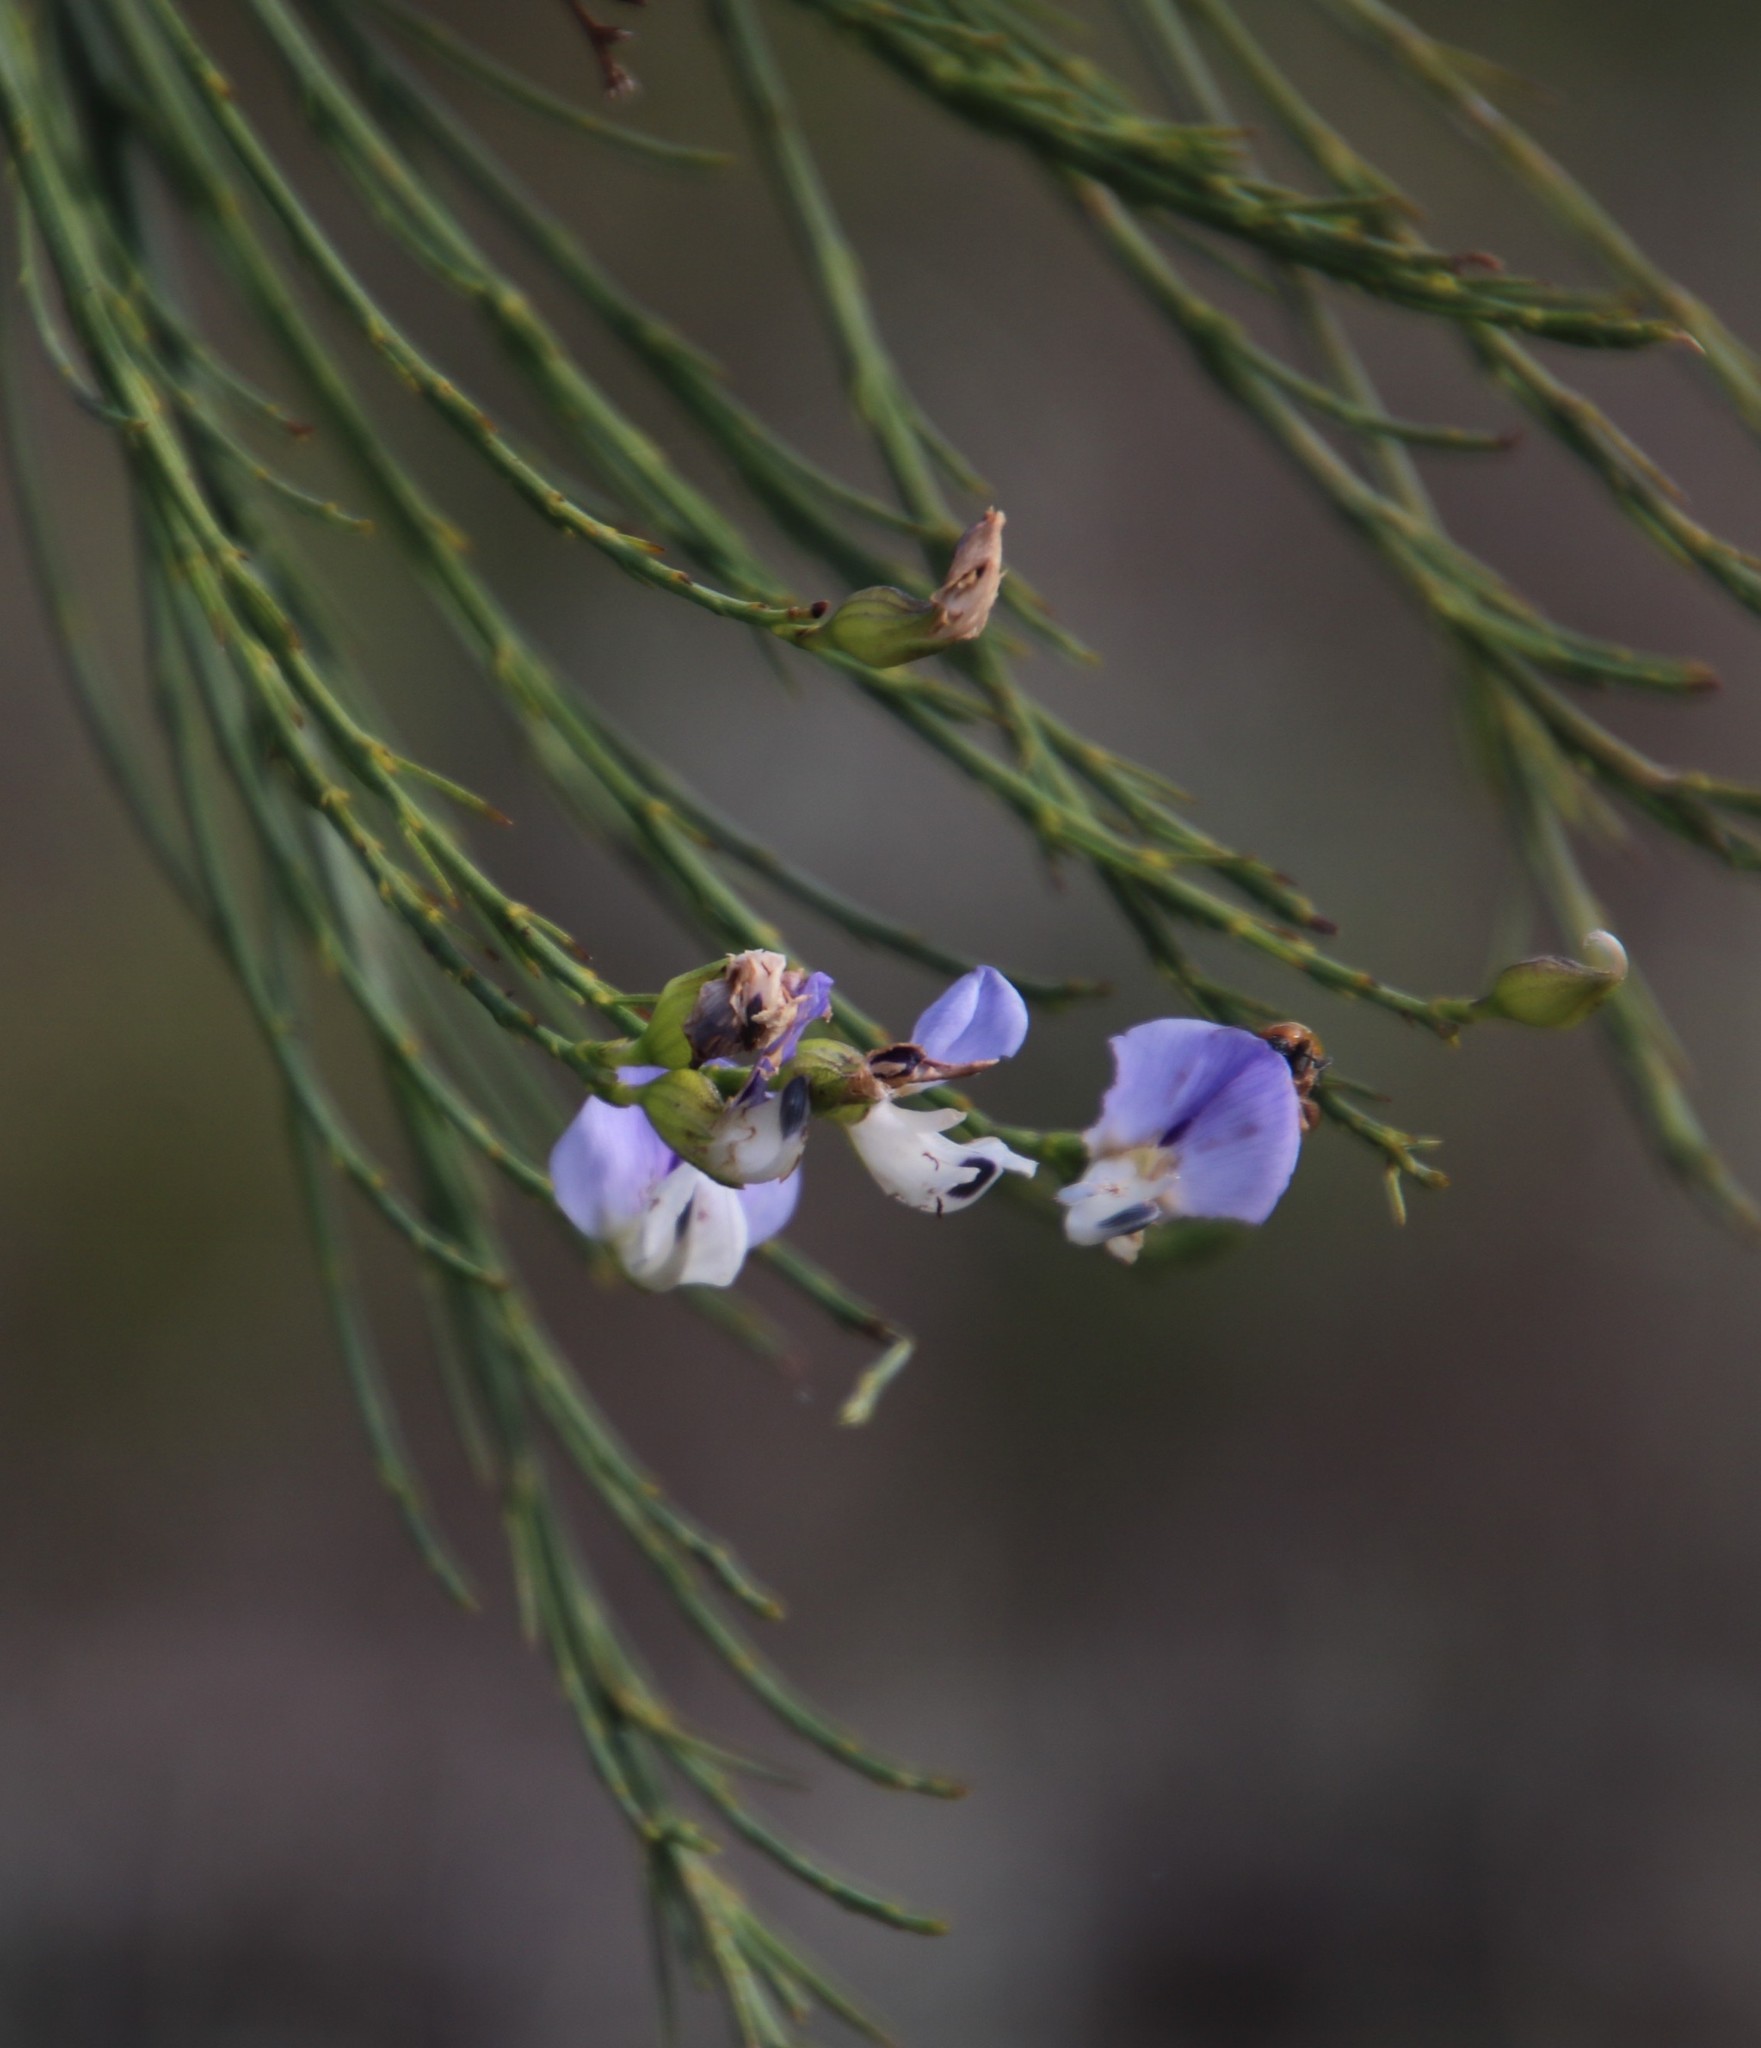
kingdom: Plantae
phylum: Tracheophyta
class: Magnoliopsida
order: Fabales
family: Fabaceae
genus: Psoralea
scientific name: Psoralea usitata
